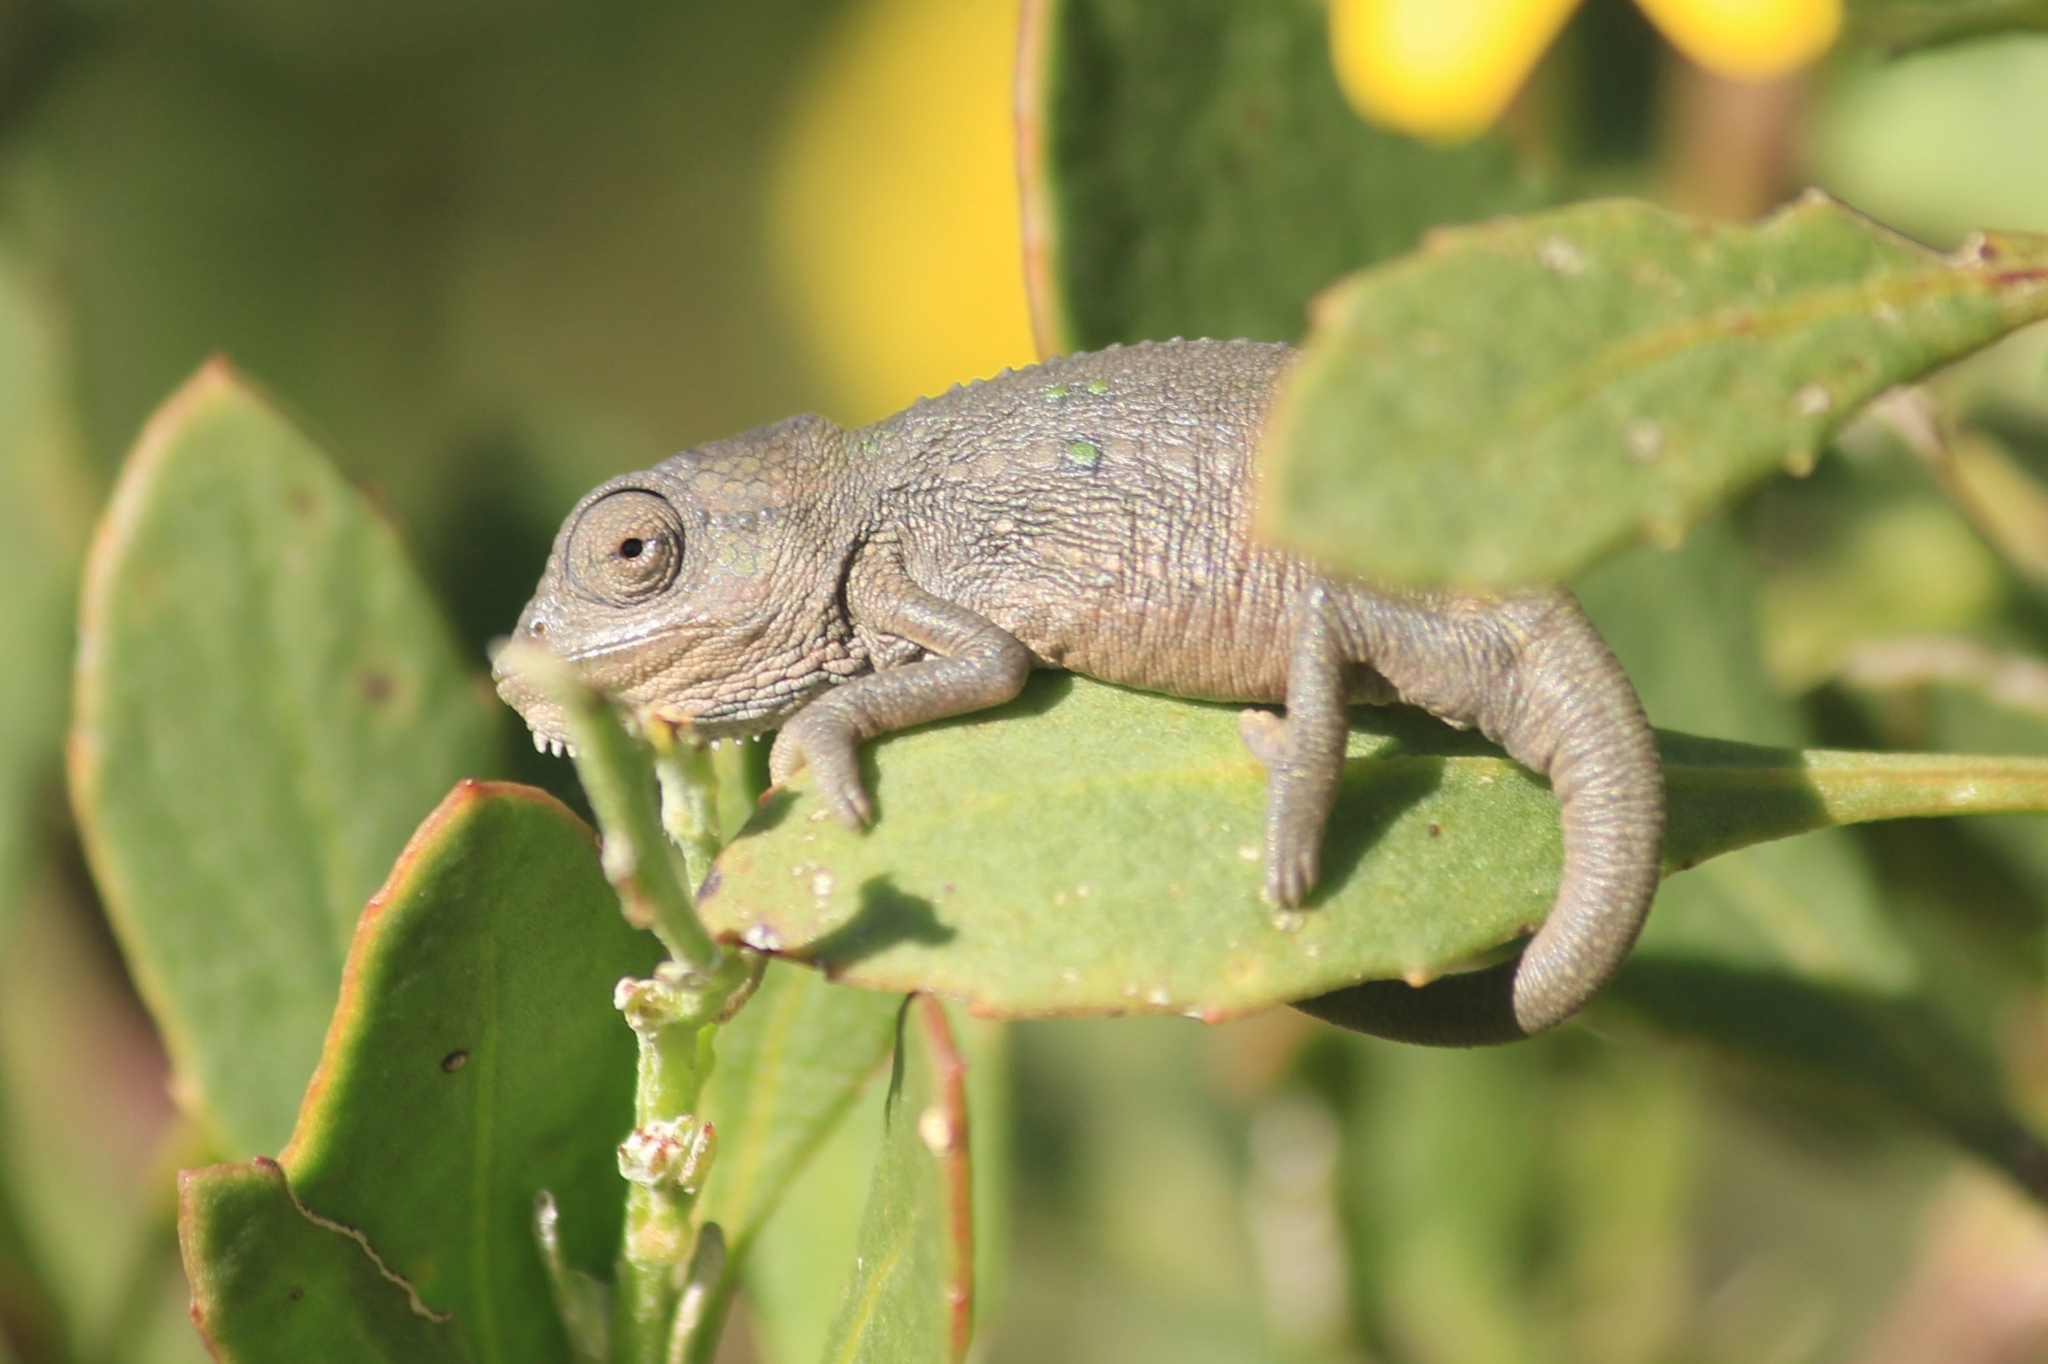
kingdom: Animalia
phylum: Chordata
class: Squamata
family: Chamaeleonidae
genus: Bradypodion
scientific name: Bradypodion pumilum
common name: Cape dwarf chameleon
